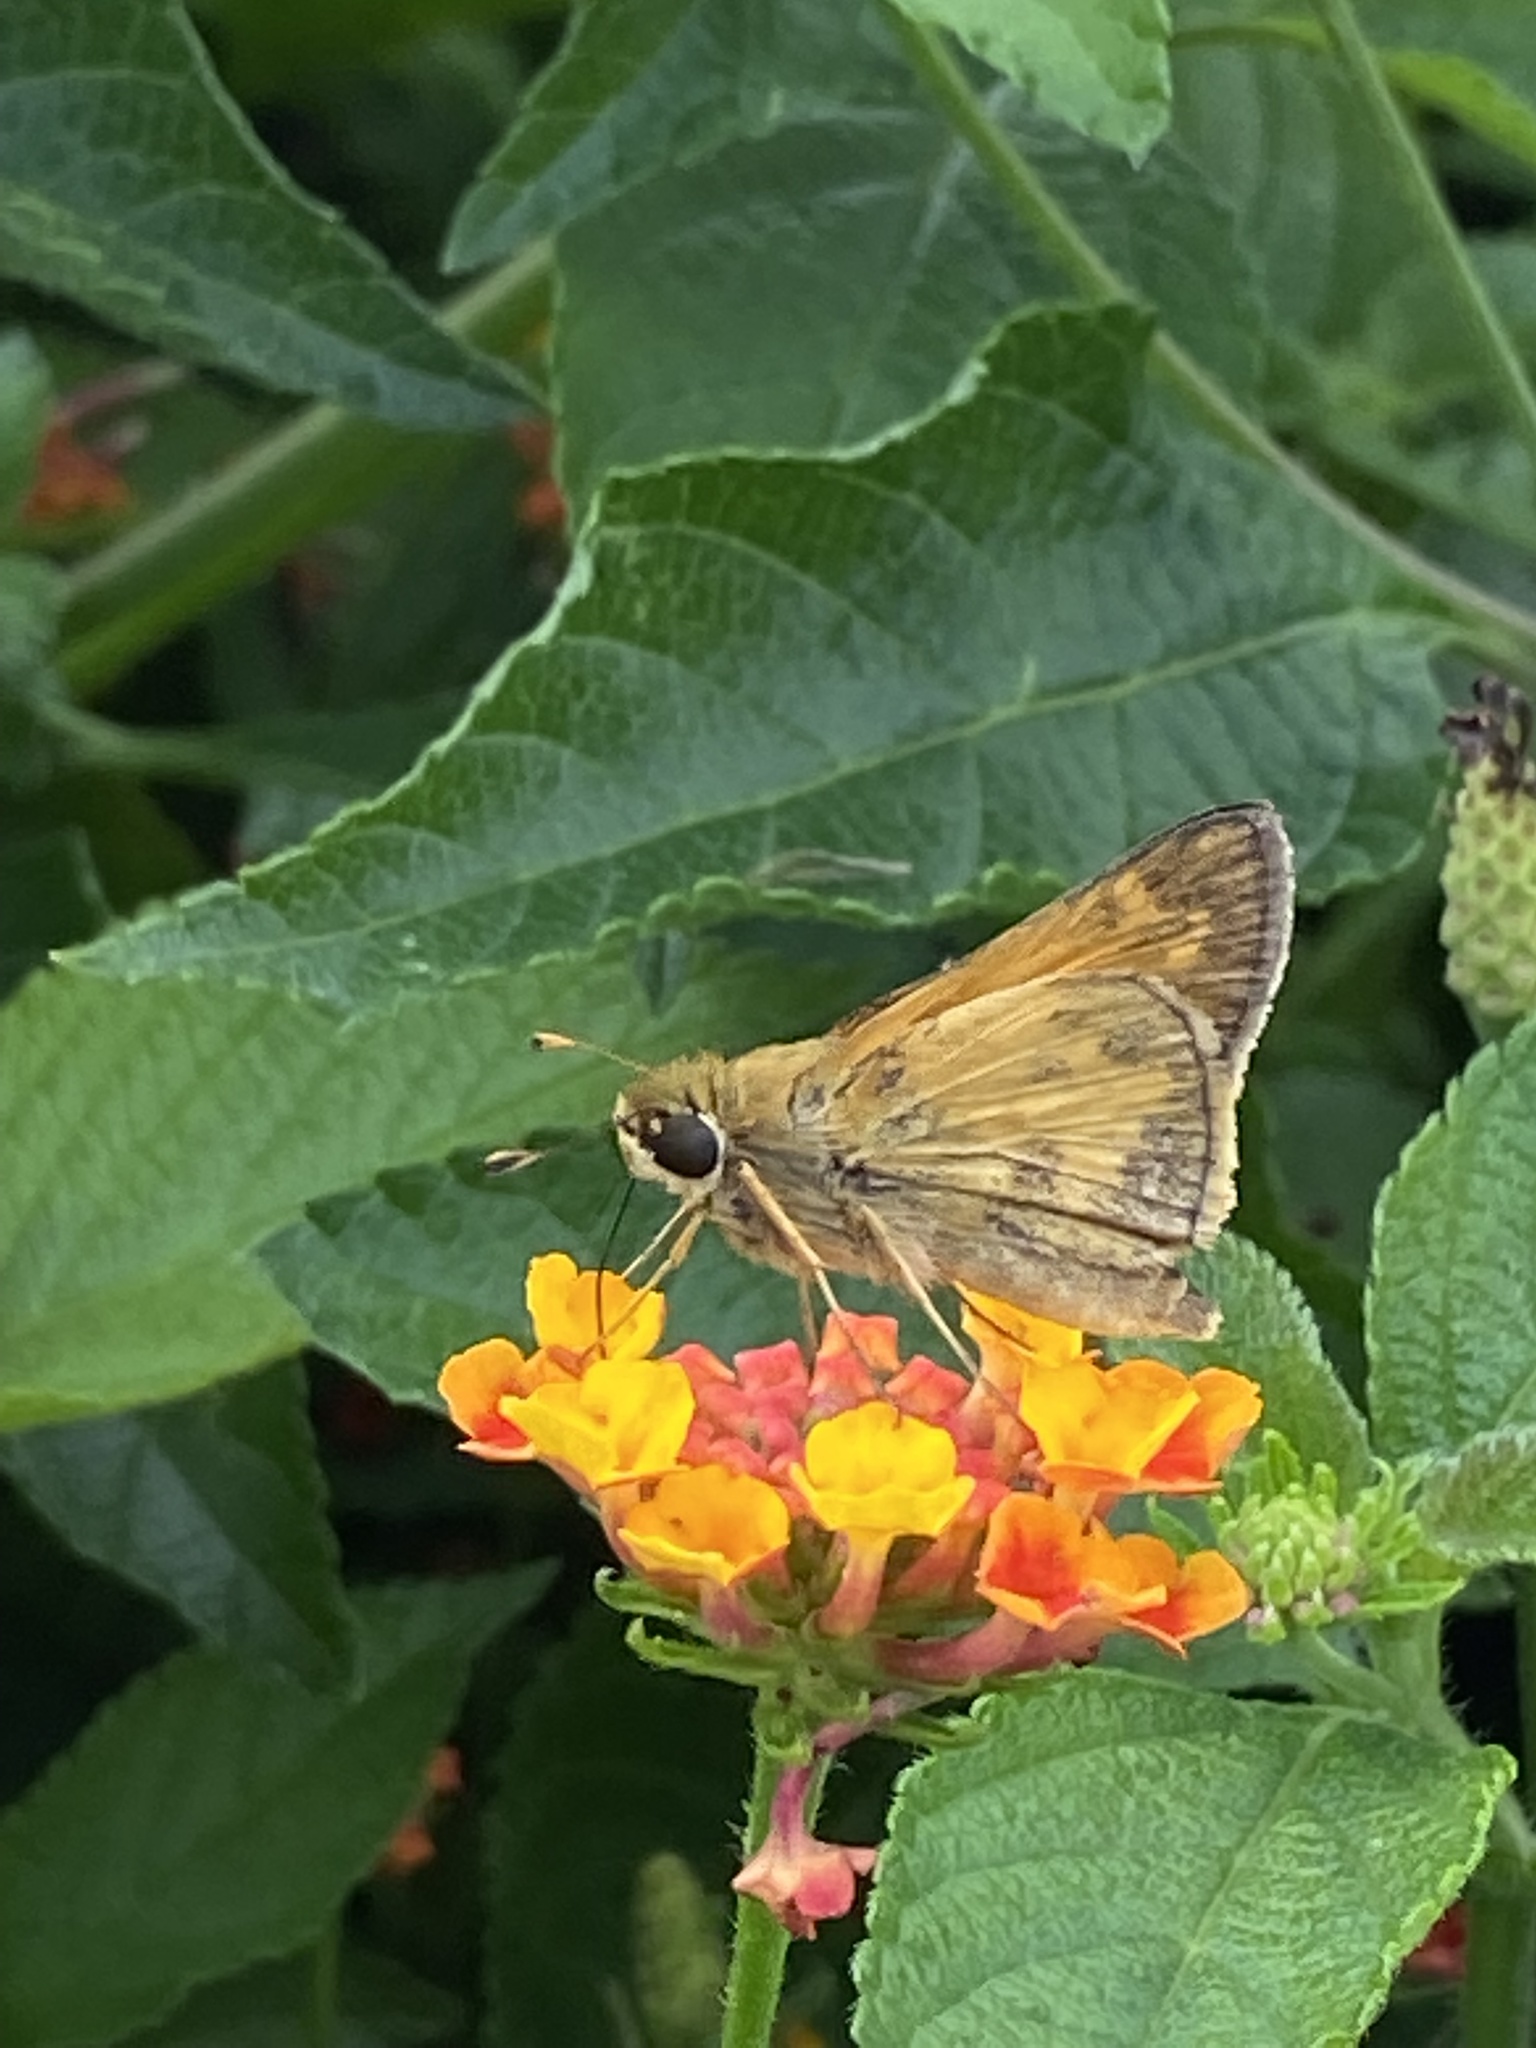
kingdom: Animalia
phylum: Arthropoda
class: Insecta
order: Lepidoptera
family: Hesperiidae
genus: Atalopedes
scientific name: Atalopedes
